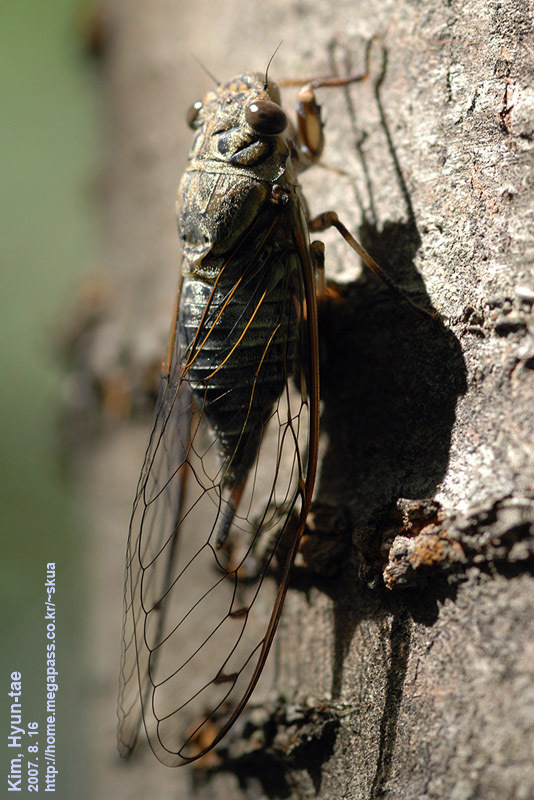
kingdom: Animalia
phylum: Arthropoda
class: Insecta
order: Hemiptera
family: Cicadidae
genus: Meimuna
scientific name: Meimuna opalifera
